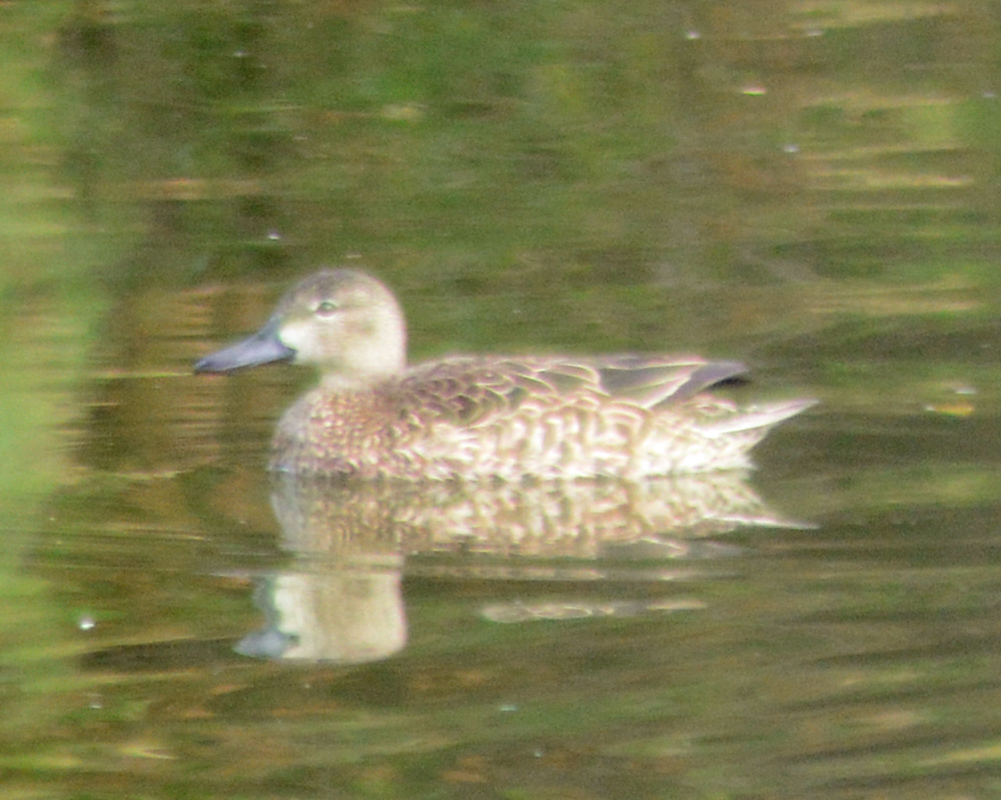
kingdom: Animalia
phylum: Chordata
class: Aves
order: Anseriformes
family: Anatidae
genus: Spatula
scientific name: Spatula discors
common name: Blue-winged teal
